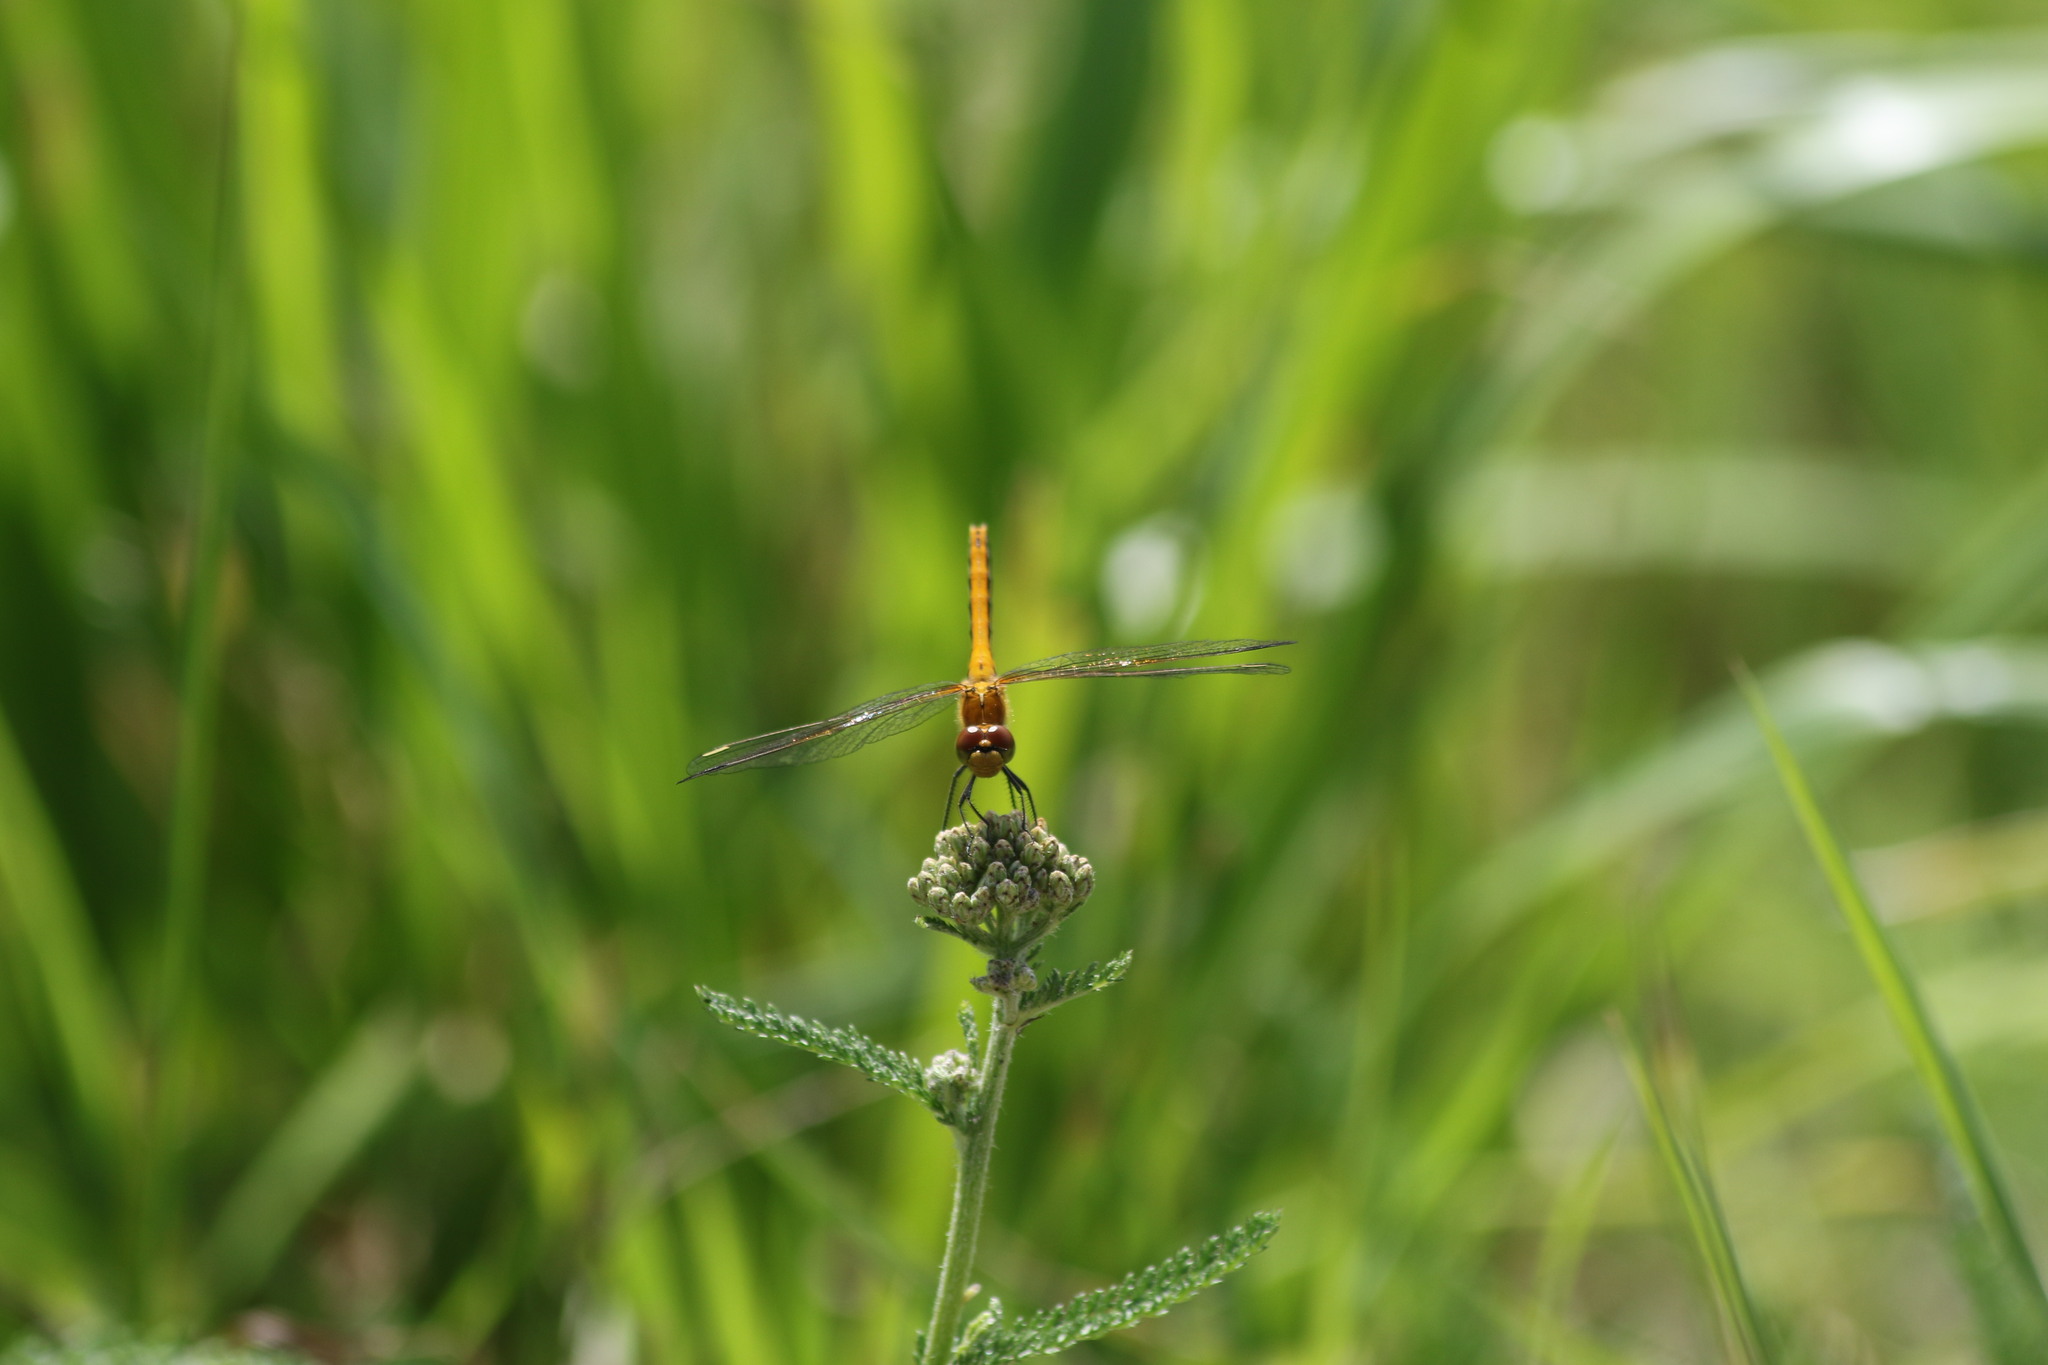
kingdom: Animalia
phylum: Arthropoda
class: Insecta
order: Odonata
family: Libellulidae
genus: Sympetrum
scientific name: Sympetrum flaveolum
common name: Yellow-winged darter
